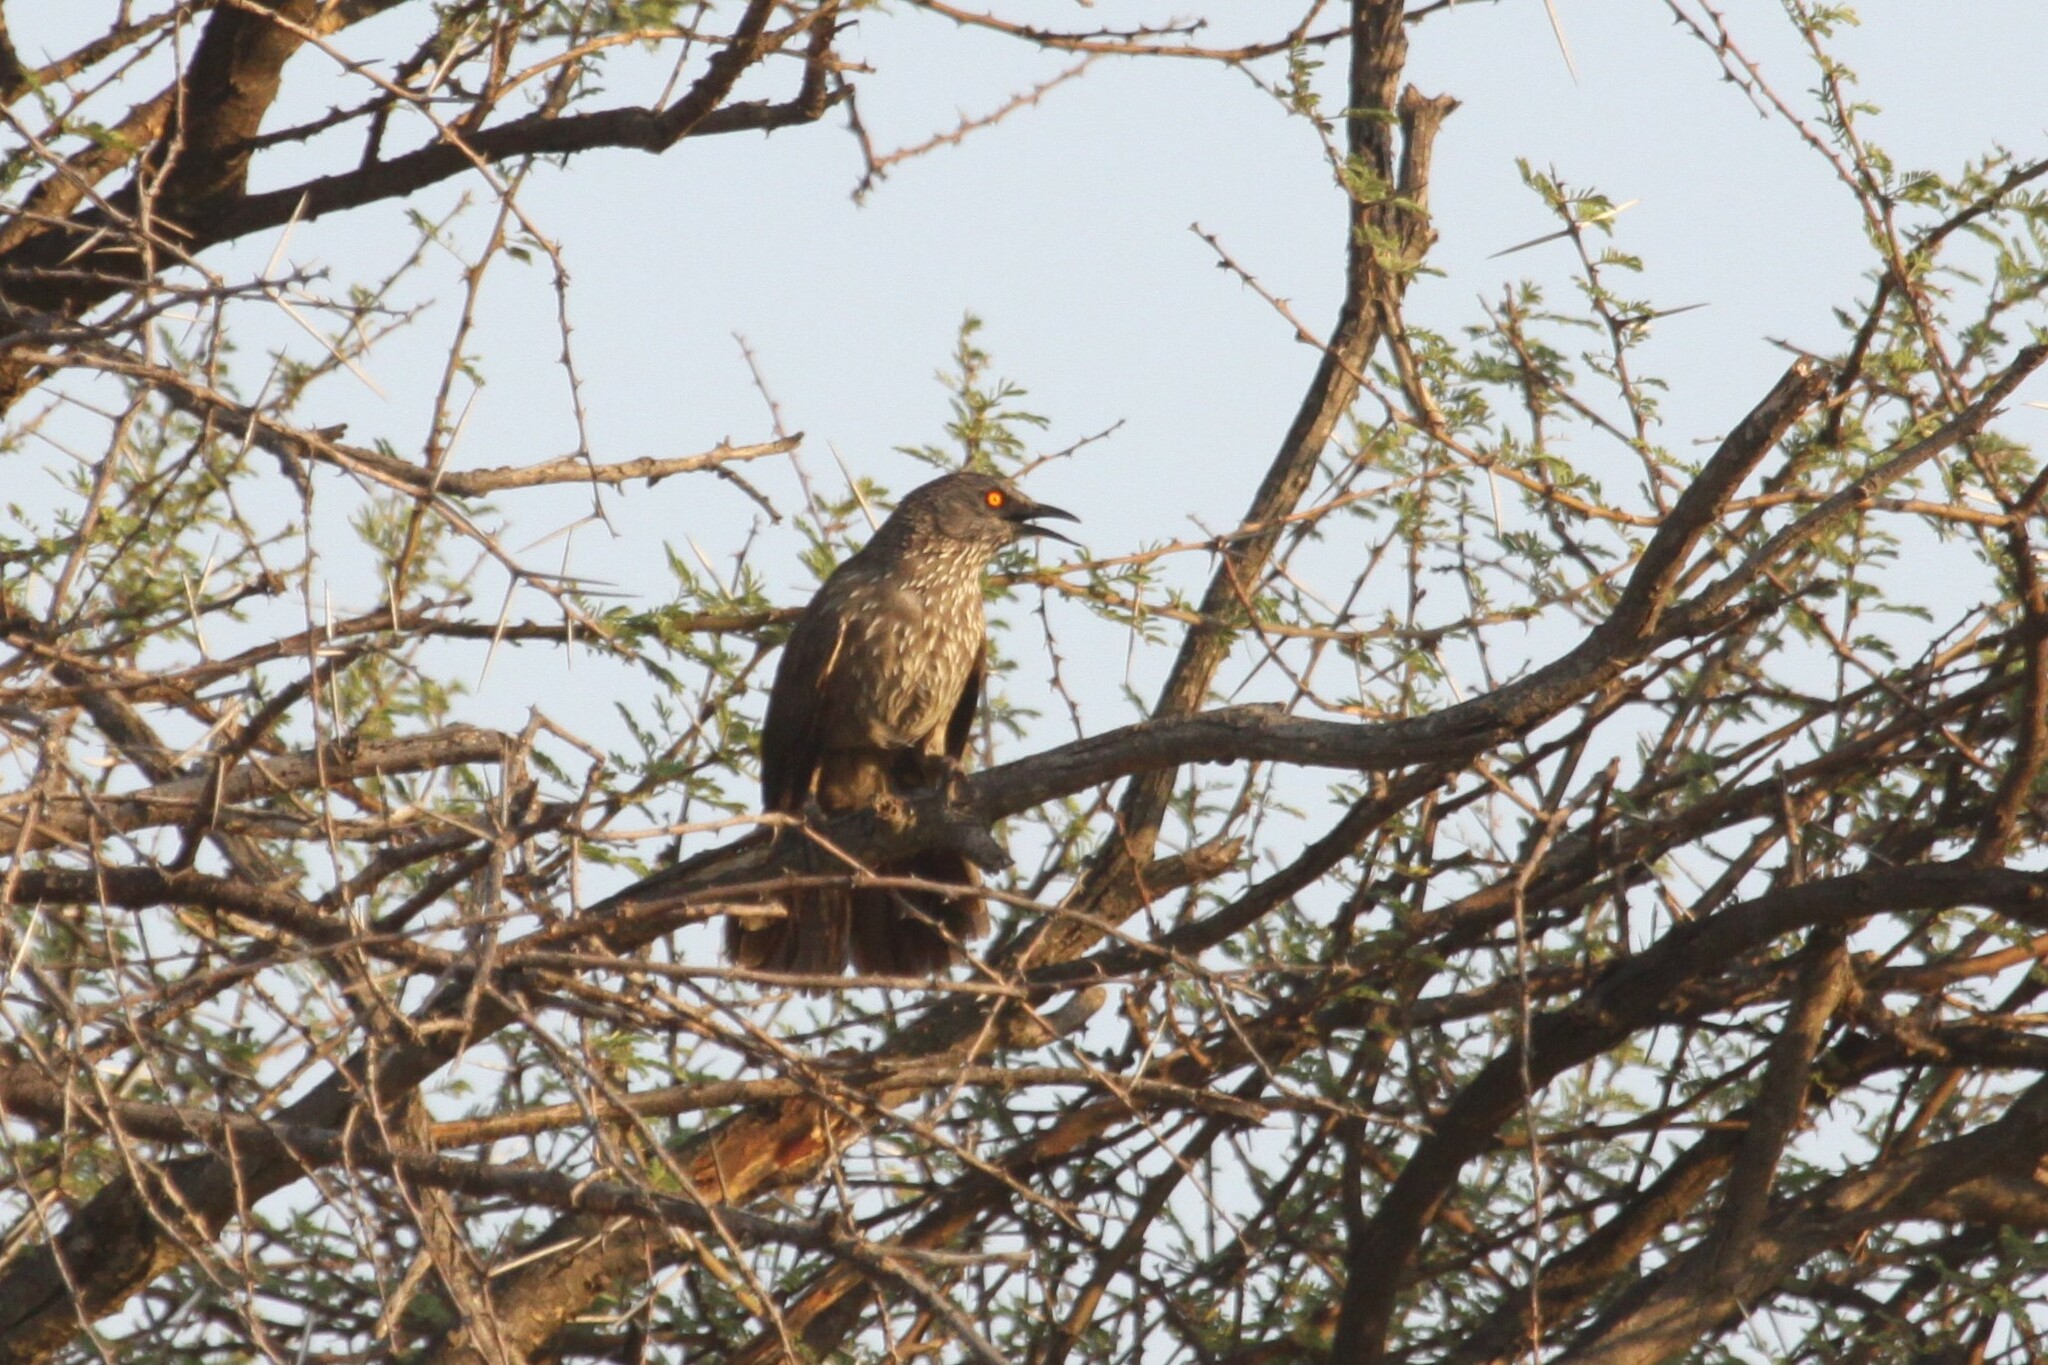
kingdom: Animalia
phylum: Chordata
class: Aves
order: Passeriformes
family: Leiothrichidae
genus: Turdoides
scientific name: Turdoides jardineii
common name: Arrow-marked babbler
